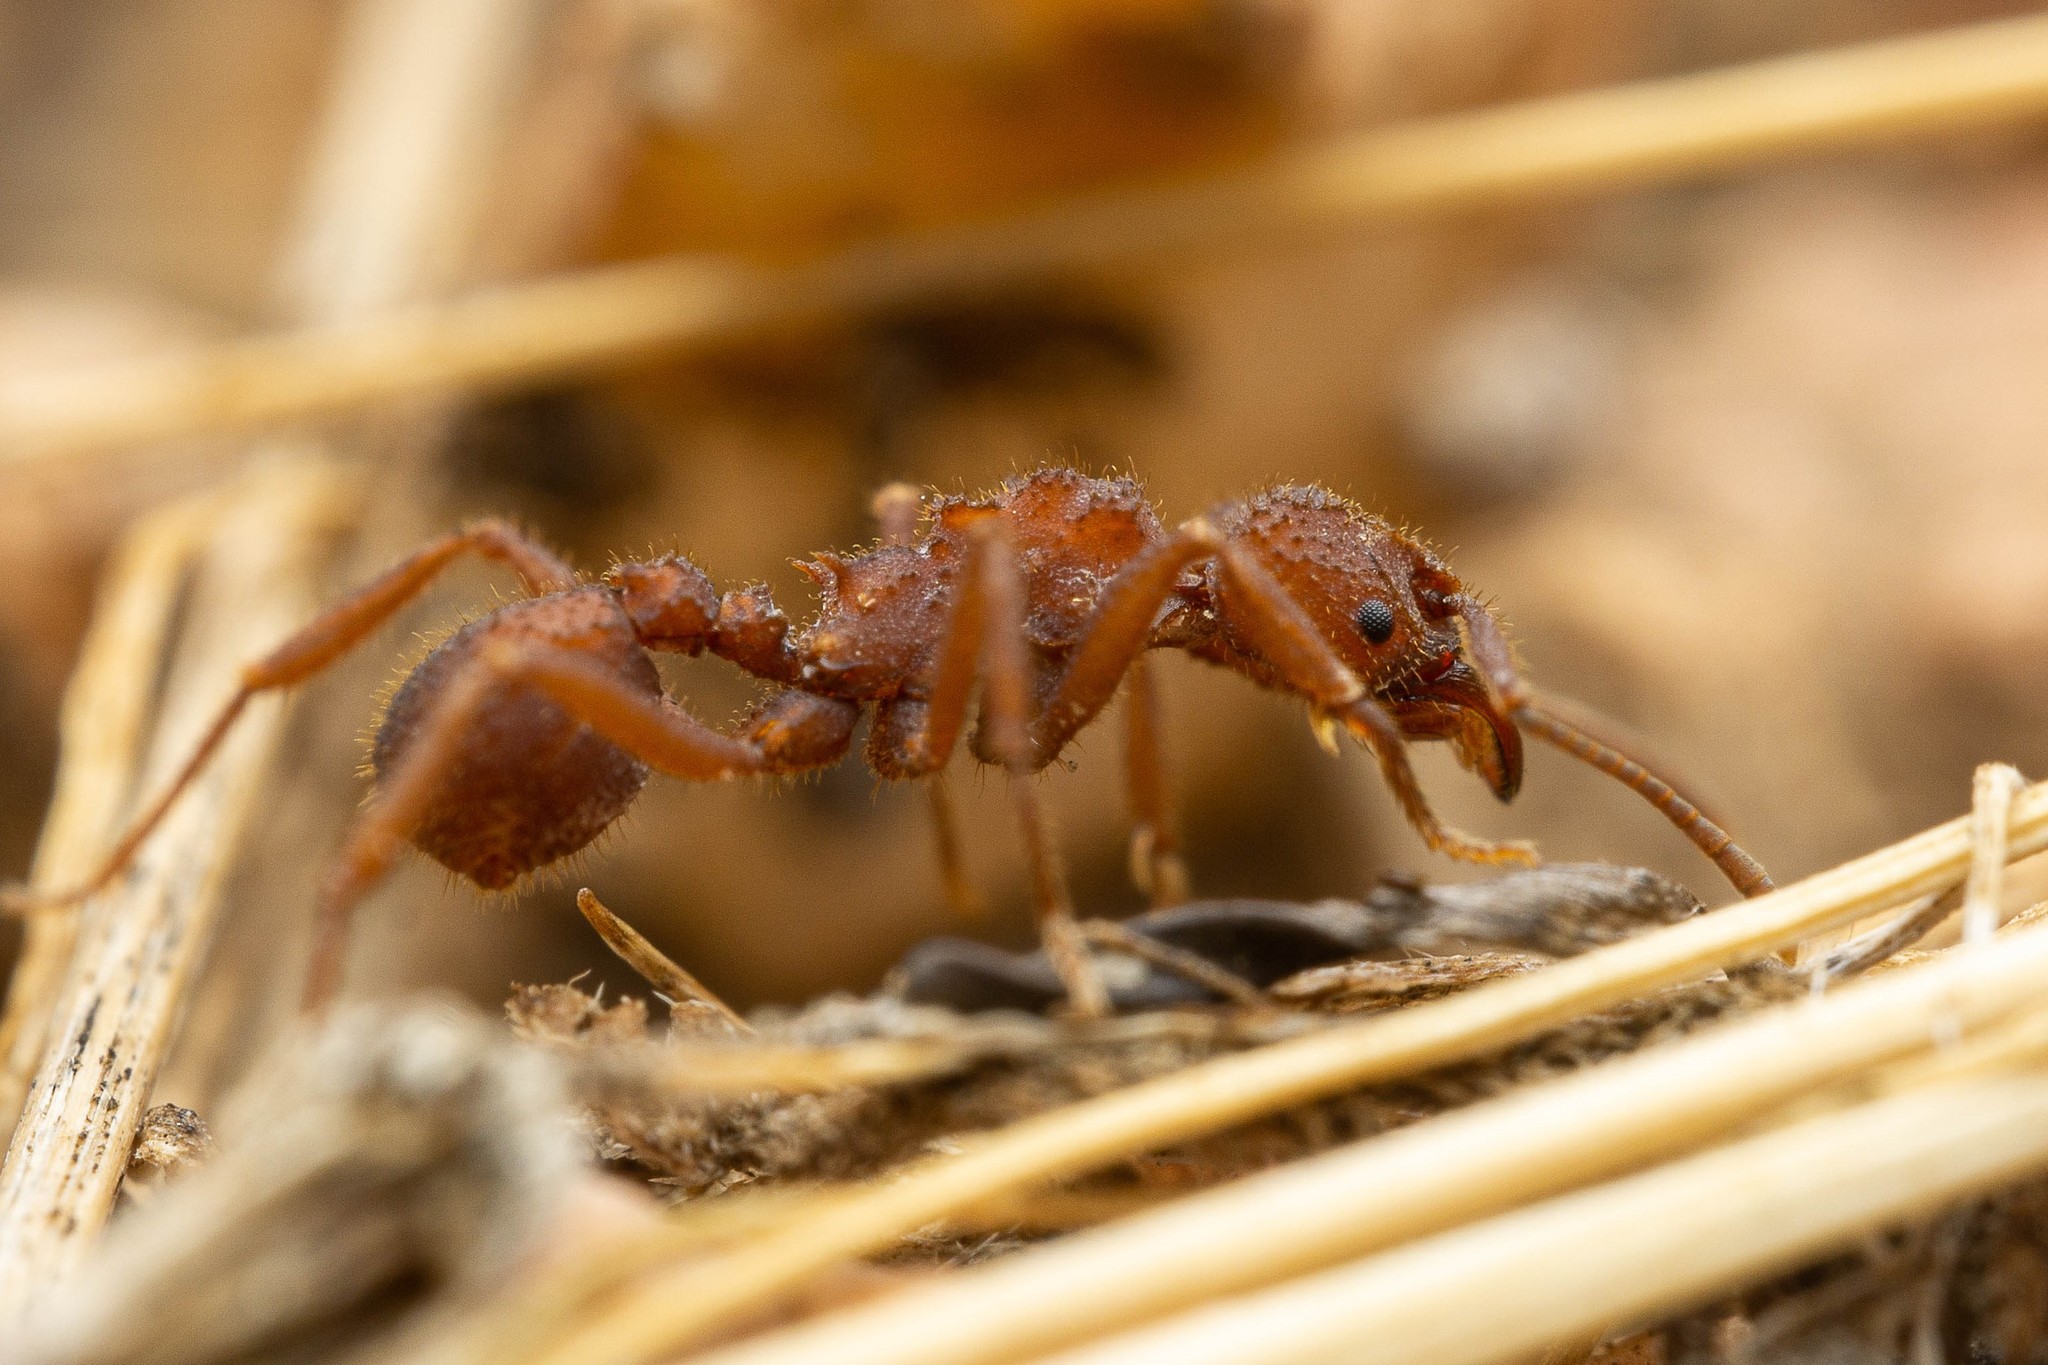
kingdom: Animalia
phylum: Arthropoda
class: Insecta
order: Hymenoptera
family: Formicidae
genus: Trachymyrmex
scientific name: Trachymyrmex desertorum
